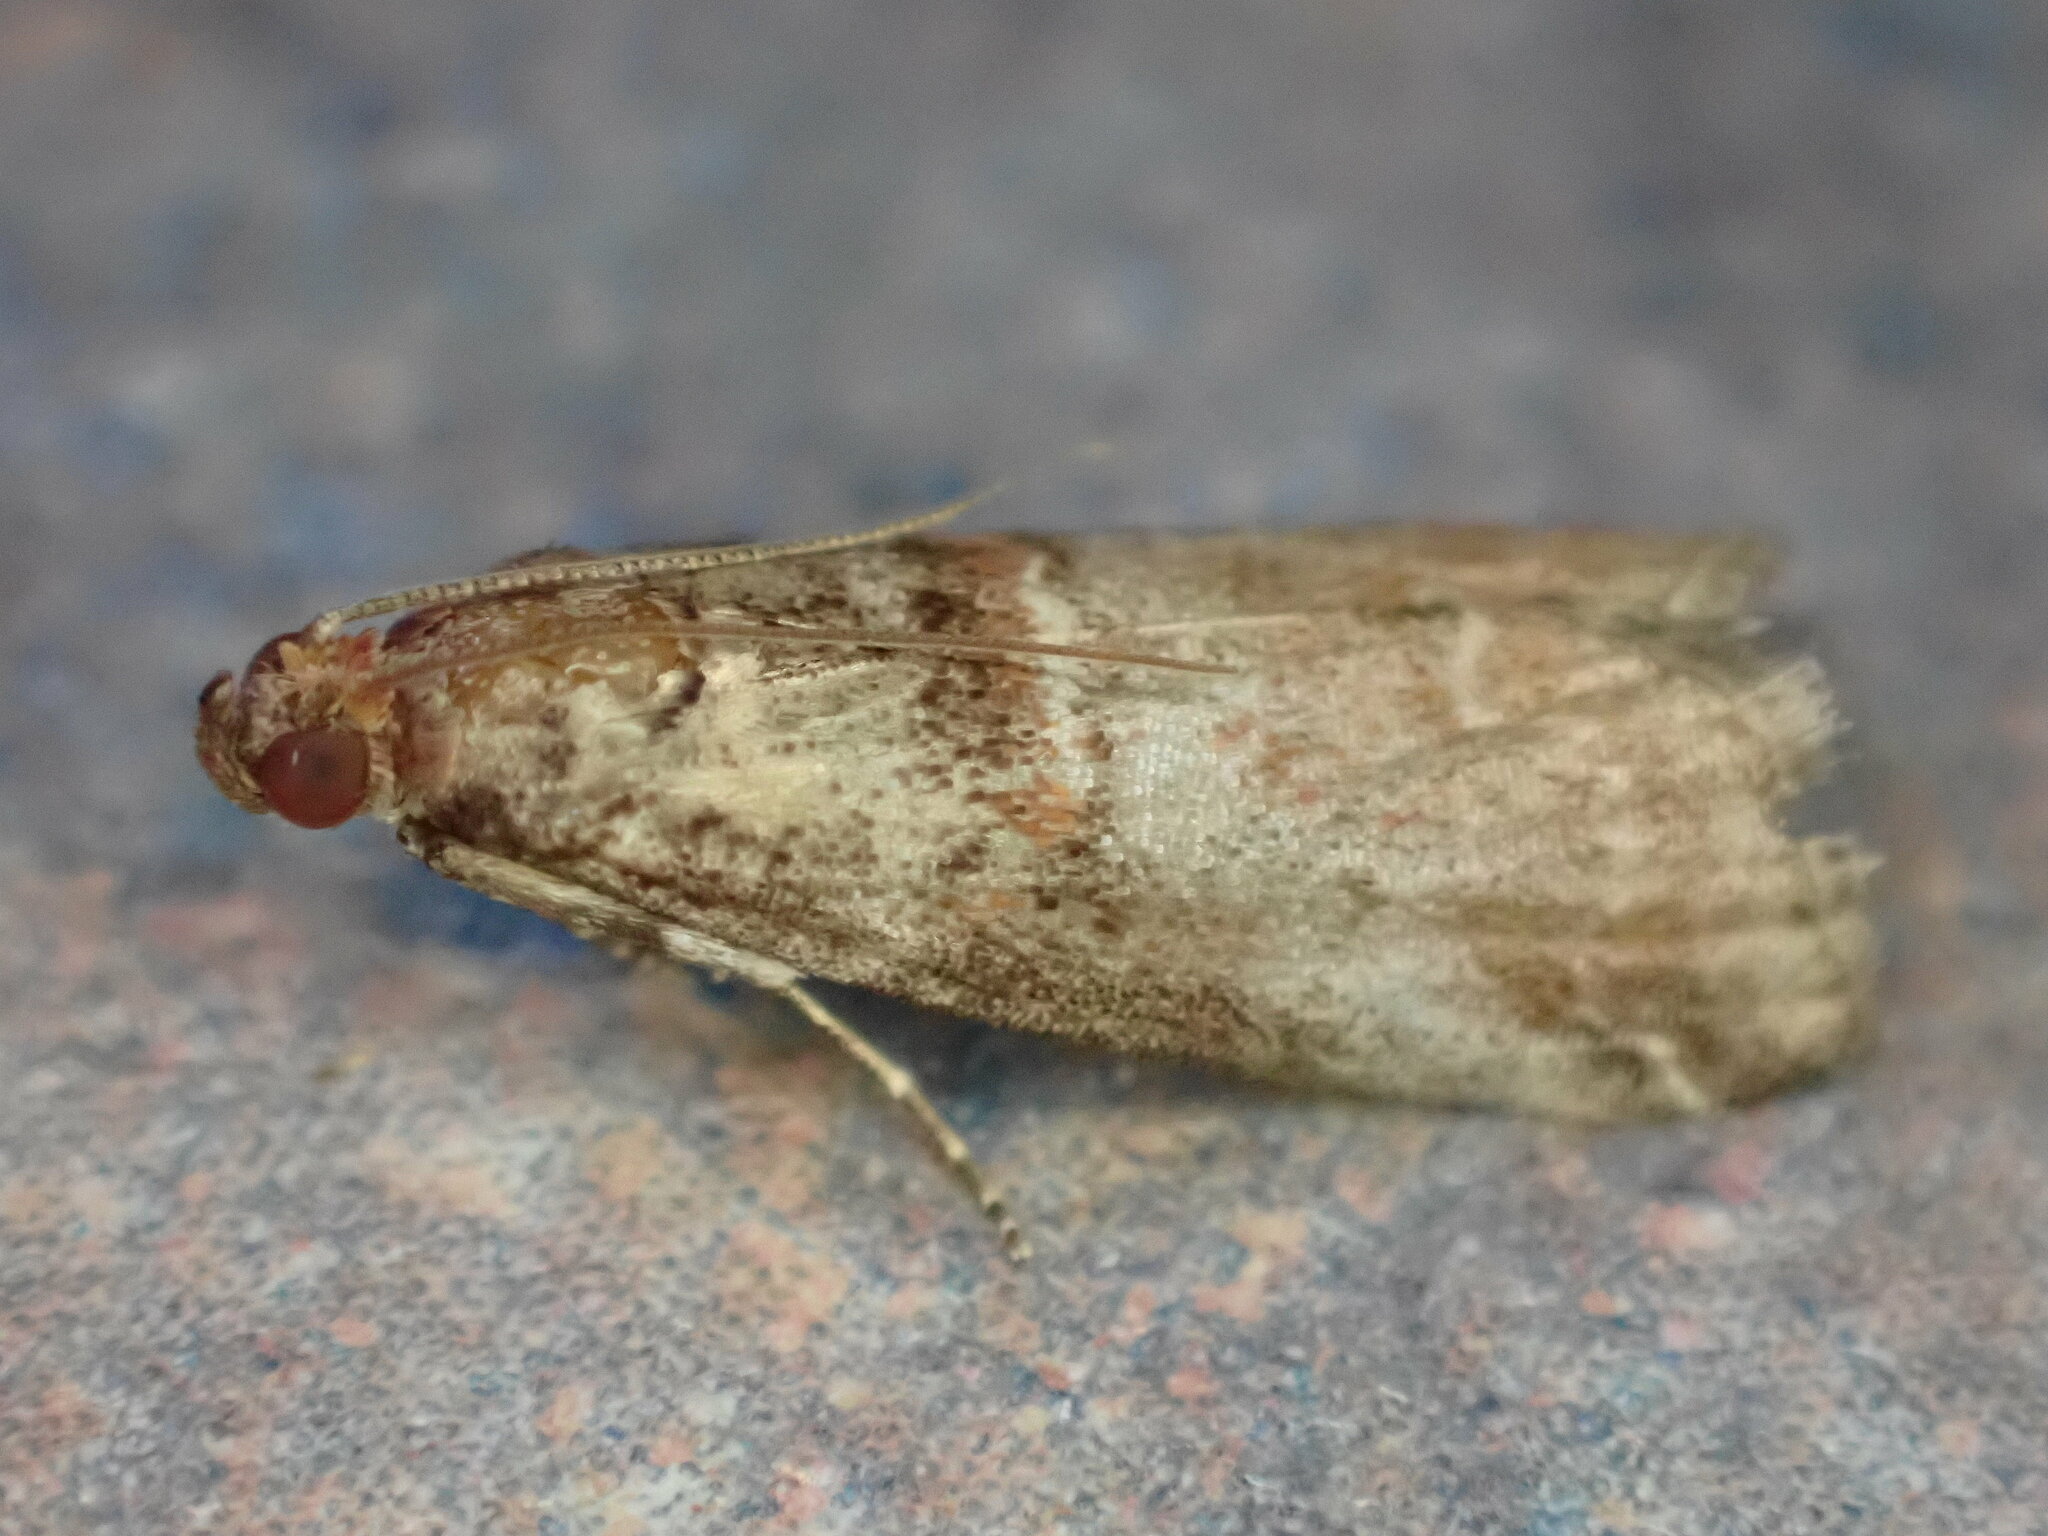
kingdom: Animalia
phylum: Arthropoda
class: Insecta
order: Lepidoptera
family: Pyralidae
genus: Acrobasis
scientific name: Acrobasis advenella
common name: Grey knot-horn
